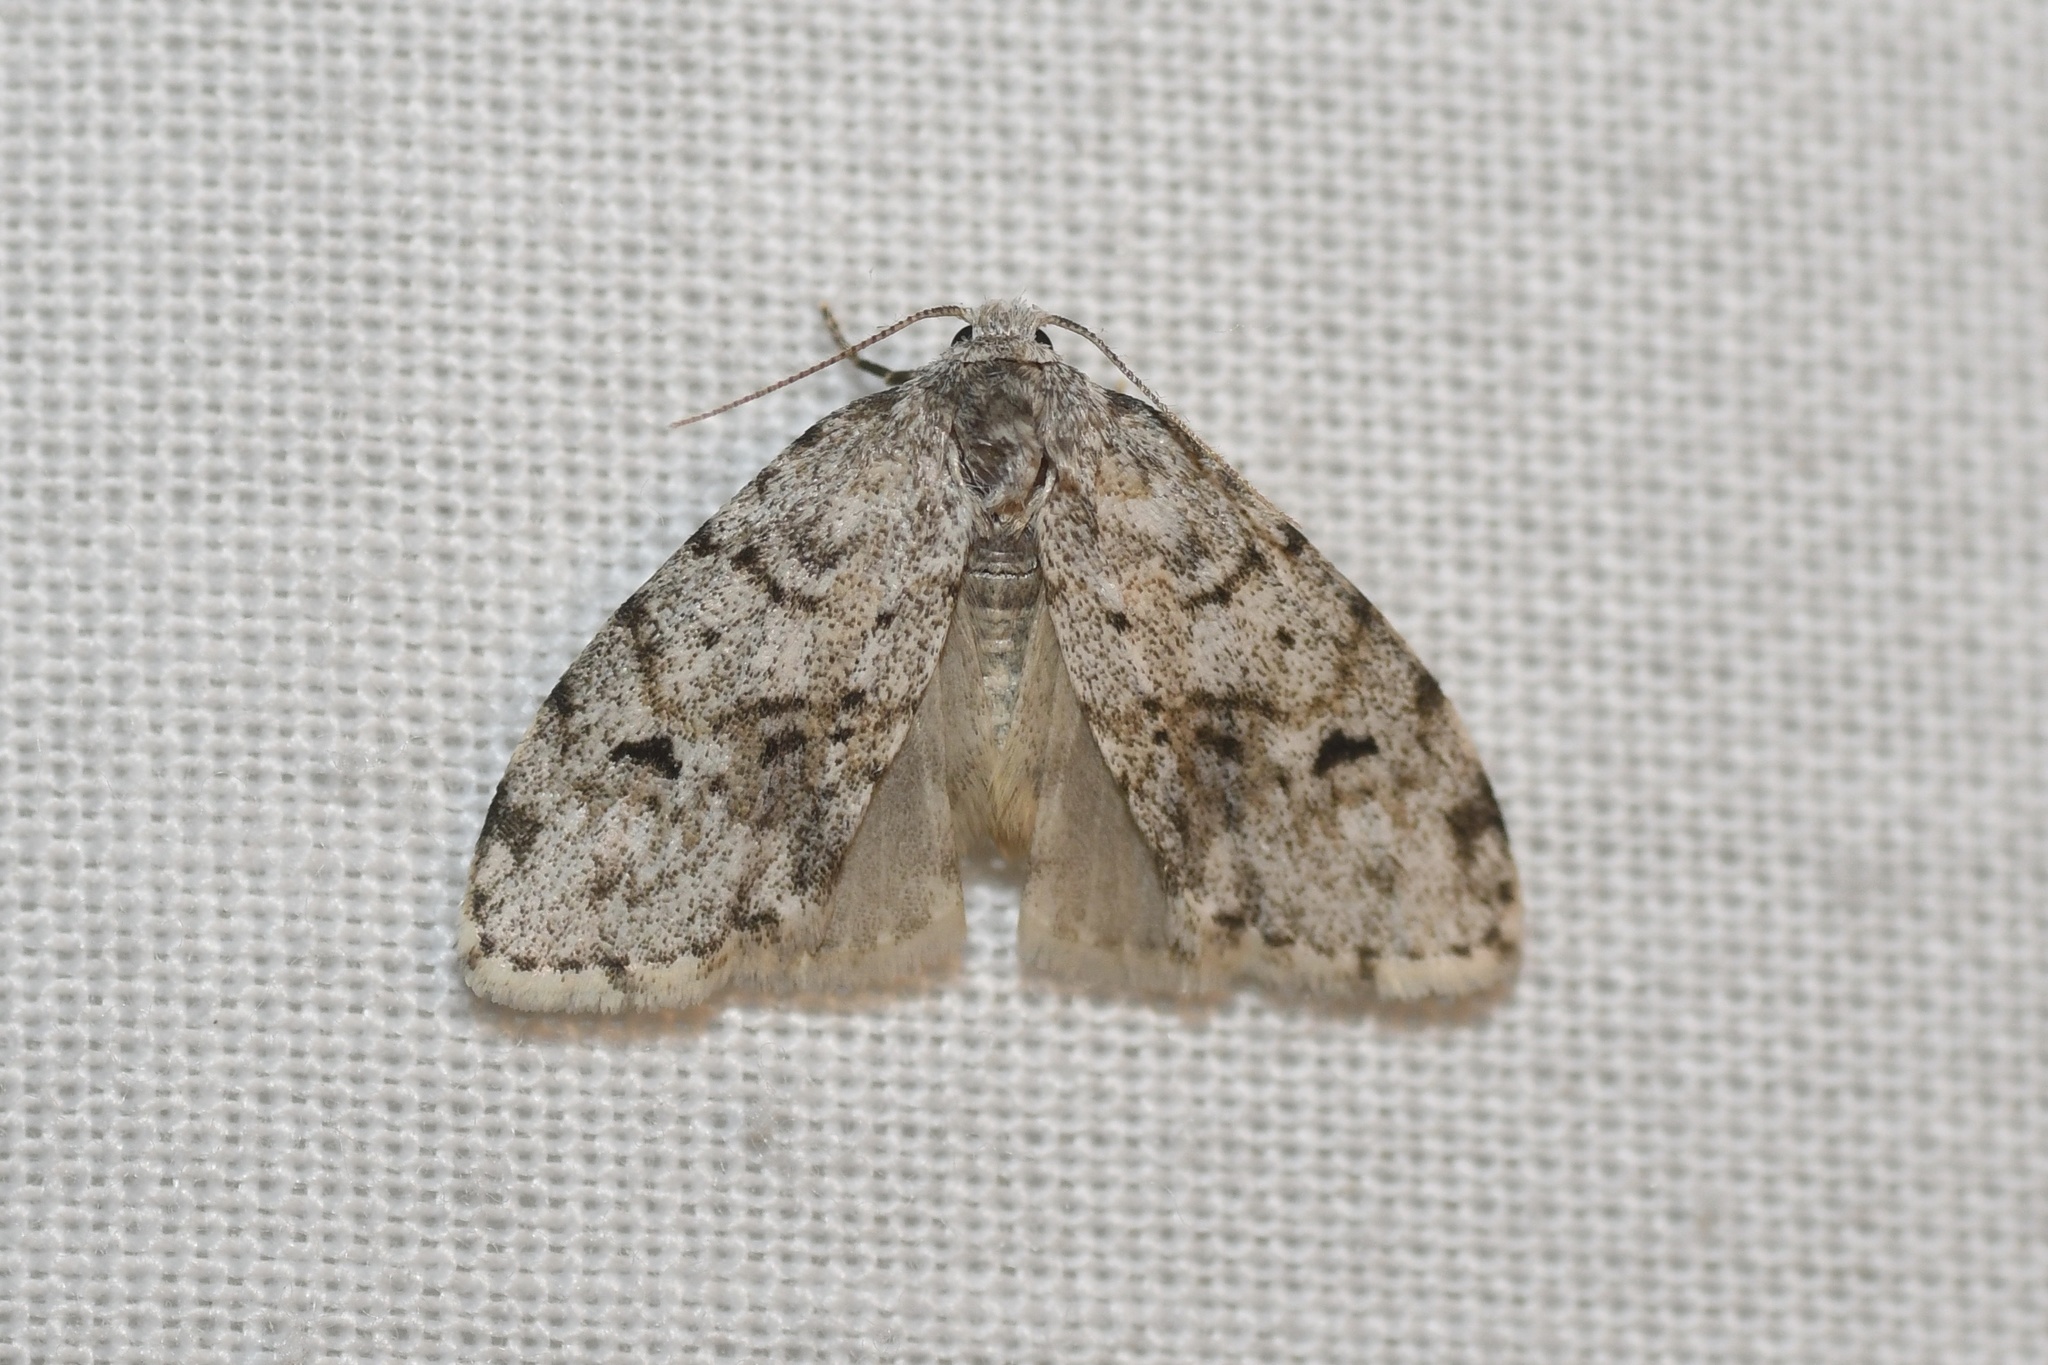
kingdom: Animalia
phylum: Arthropoda
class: Insecta
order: Lepidoptera
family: Erebidae
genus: Clemensia
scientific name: Clemensia albata
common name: Little white lichen moth
